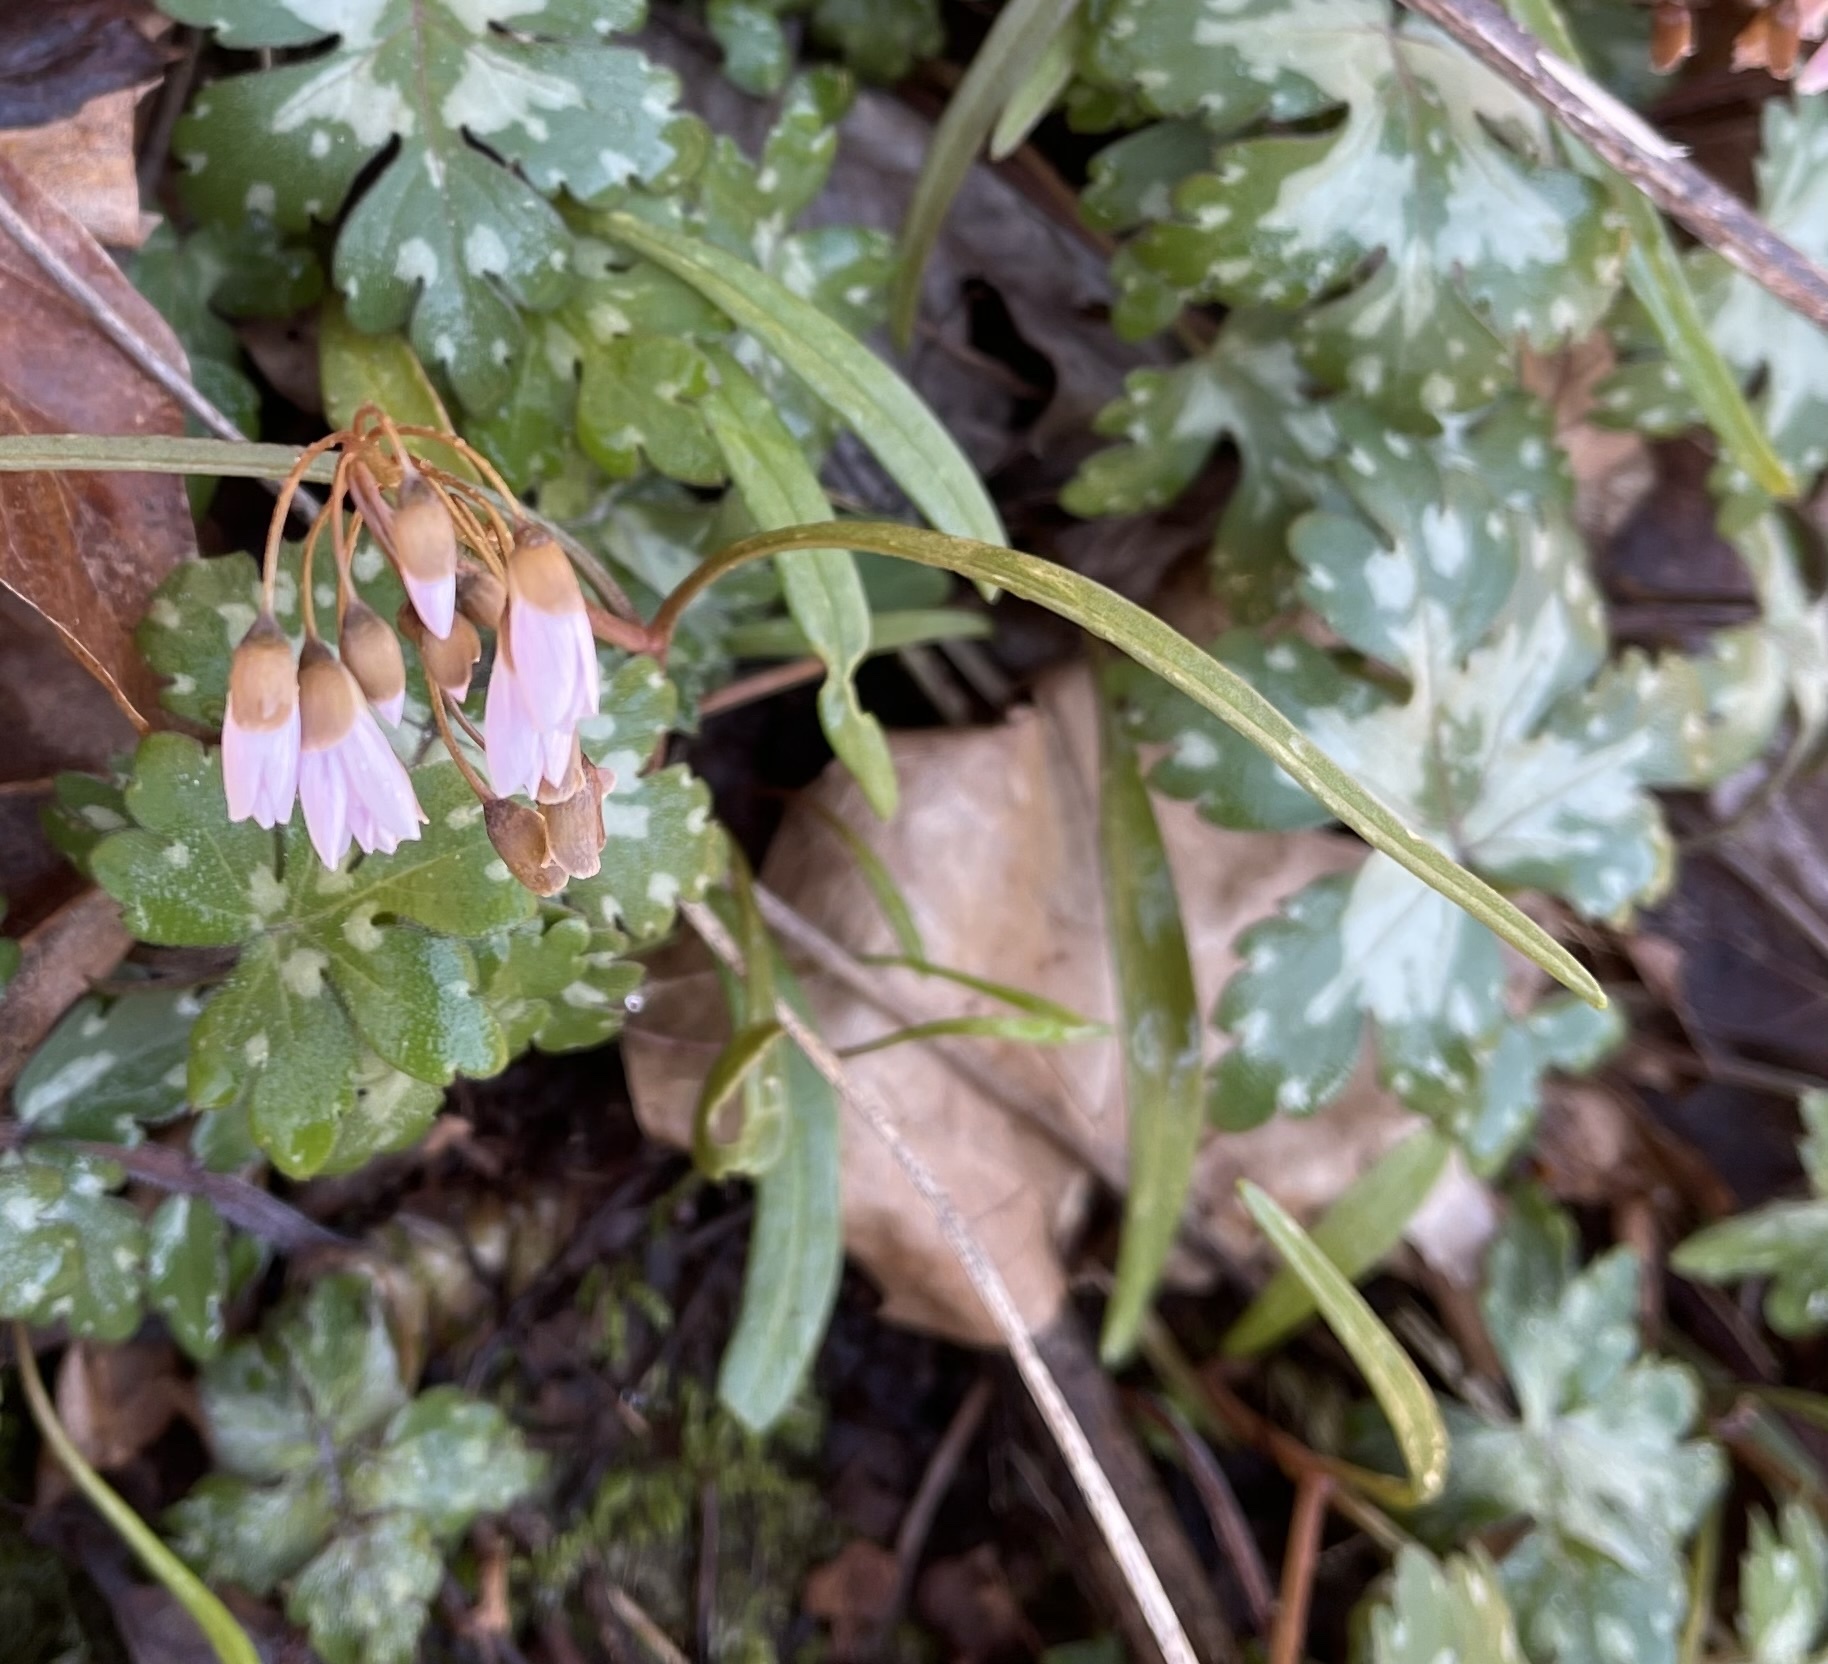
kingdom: Plantae
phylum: Tracheophyta
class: Magnoliopsida
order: Caryophyllales
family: Montiaceae
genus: Claytonia
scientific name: Claytonia virginica
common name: Virginia springbeauty
